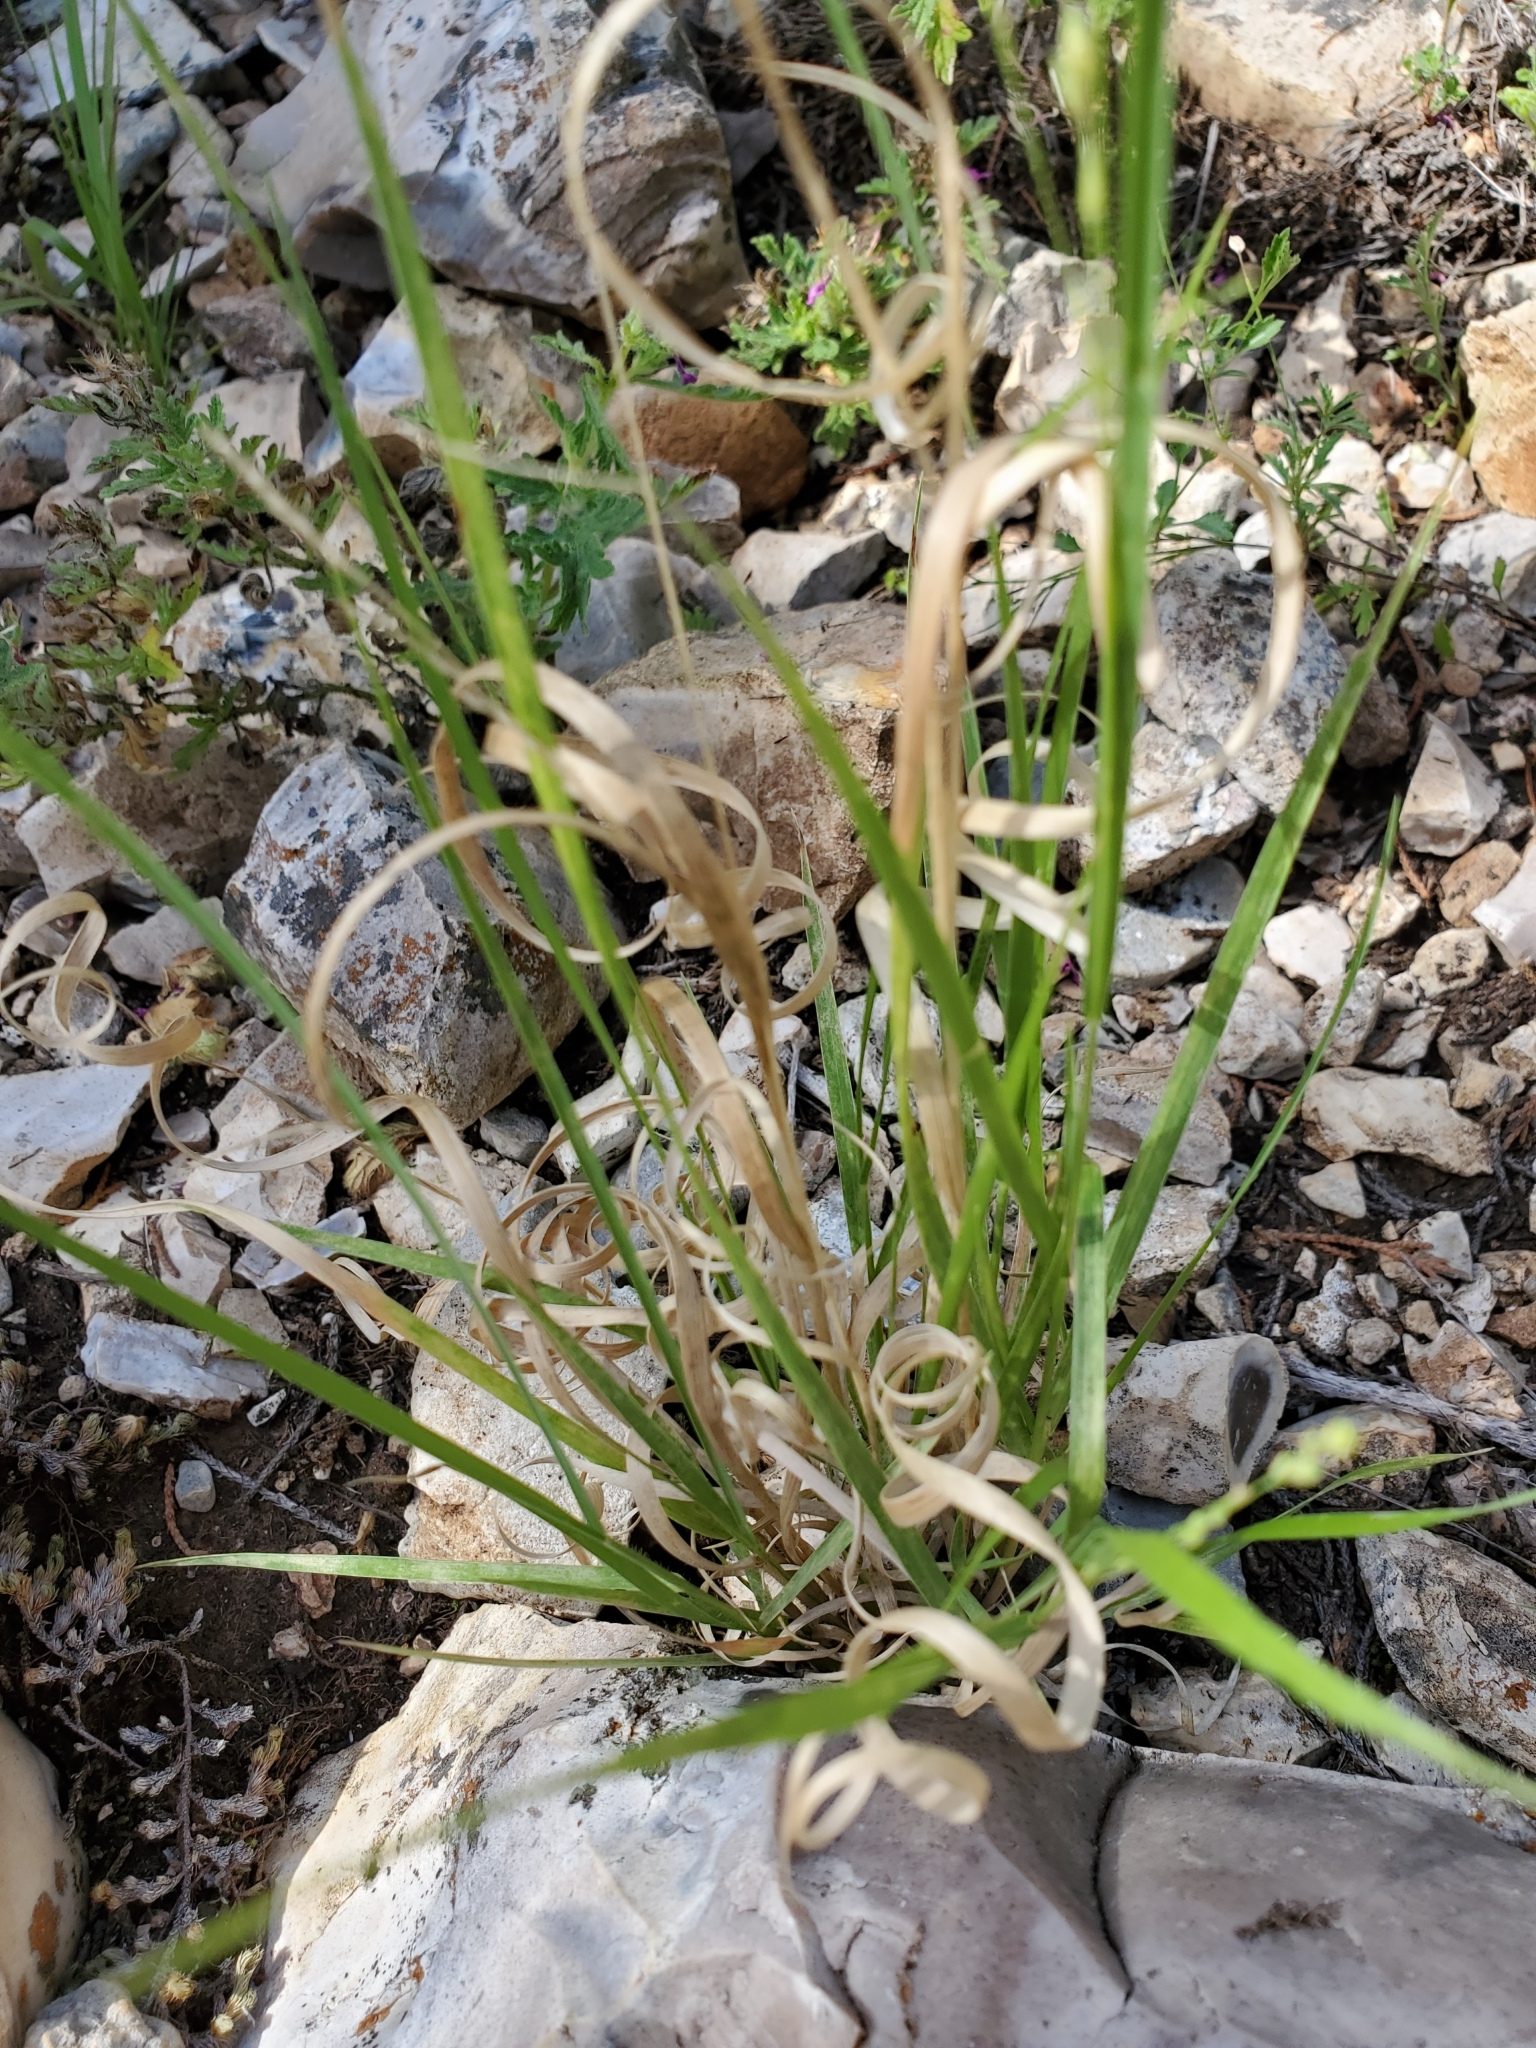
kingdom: Plantae
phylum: Tracheophyta
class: Liliopsida
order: Poales
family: Poaceae
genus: Panicum
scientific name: Panicum hallii
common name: Hall's witchgrass
